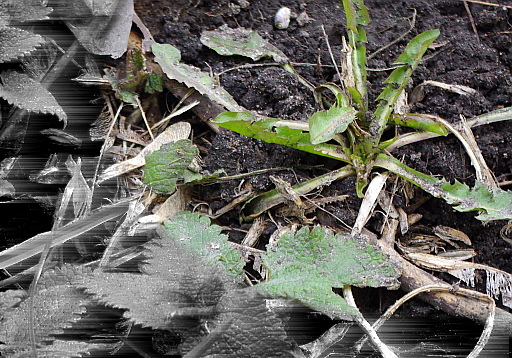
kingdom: Plantae
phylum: Tracheophyta
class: Magnoliopsida
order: Asterales
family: Asteraceae
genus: Taraxacum
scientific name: Taraxacum officinale
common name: Common dandelion
